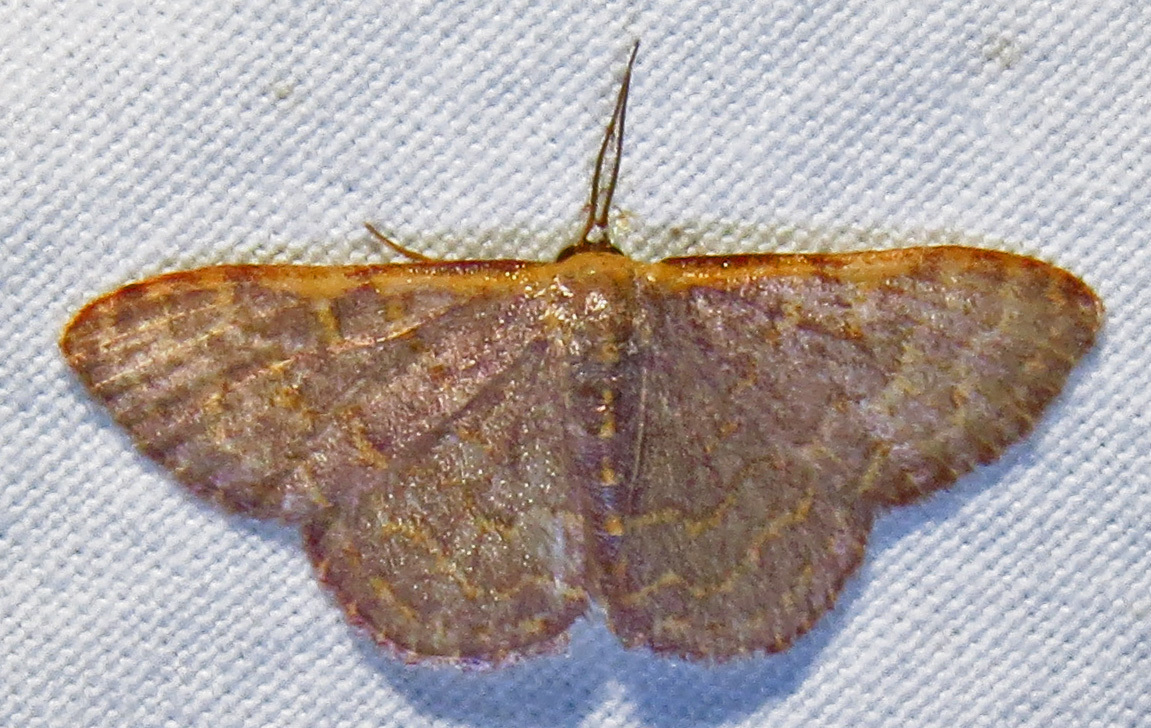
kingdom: Animalia
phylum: Arthropoda
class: Insecta
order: Lepidoptera
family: Geometridae
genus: Leptostales
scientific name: Leptostales pannaria
